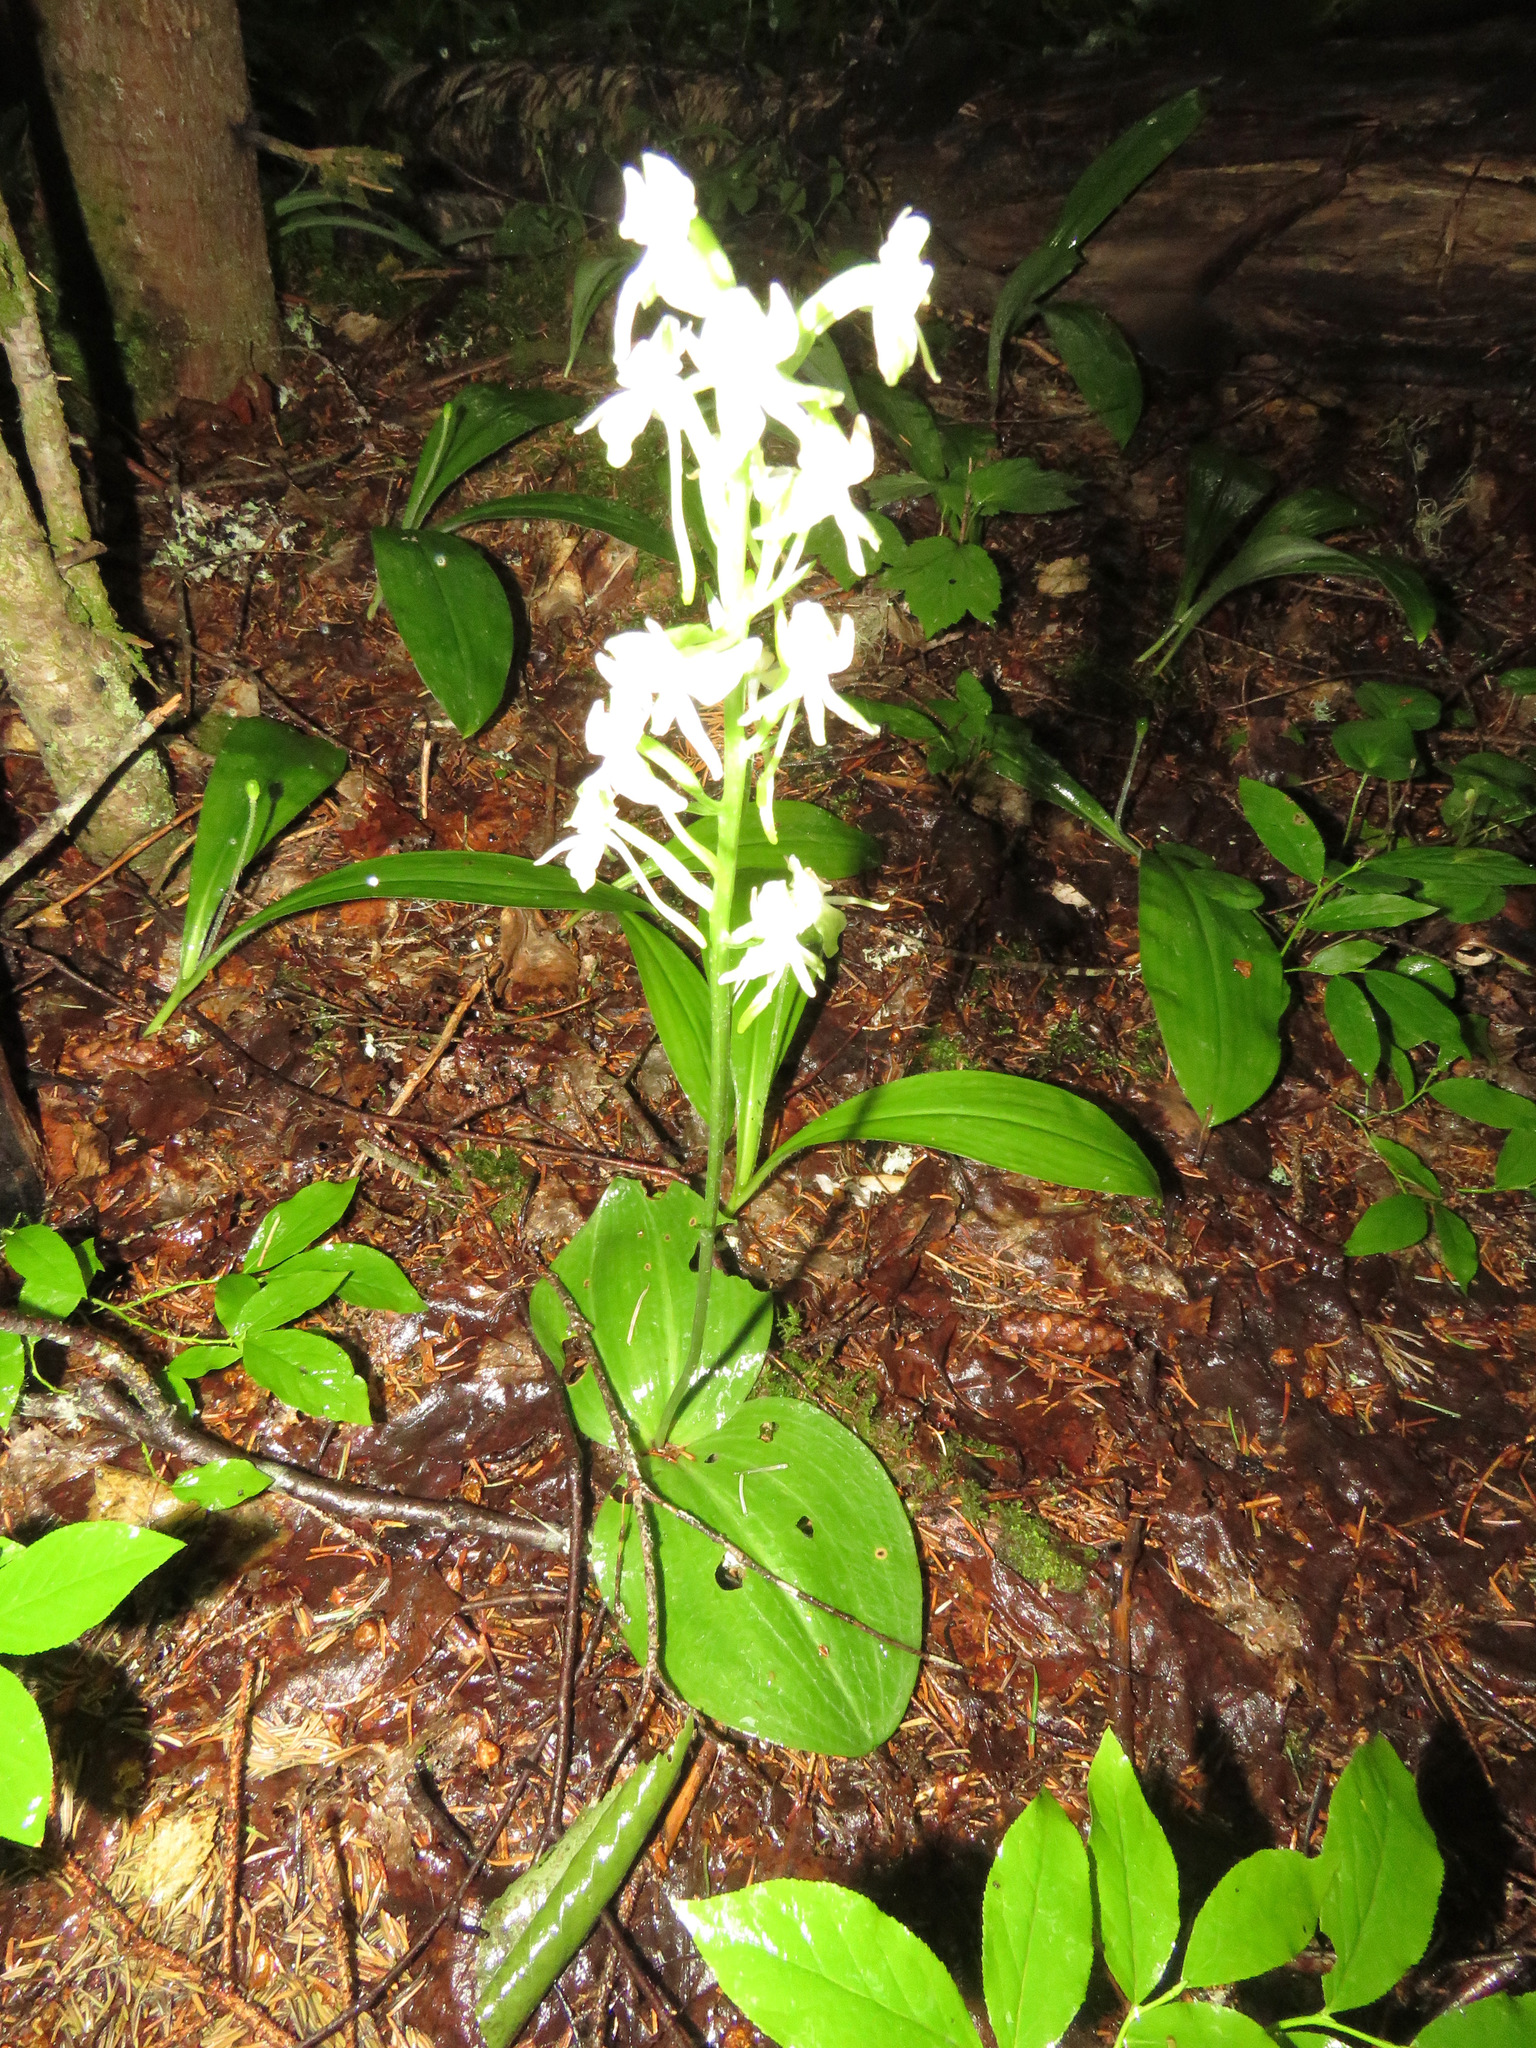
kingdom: Plantae
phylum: Tracheophyta
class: Liliopsida
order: Asparagales
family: Orchidaceae
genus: Platanthera
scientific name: Platanthera orbiculata
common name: Large round-leaved orchid
